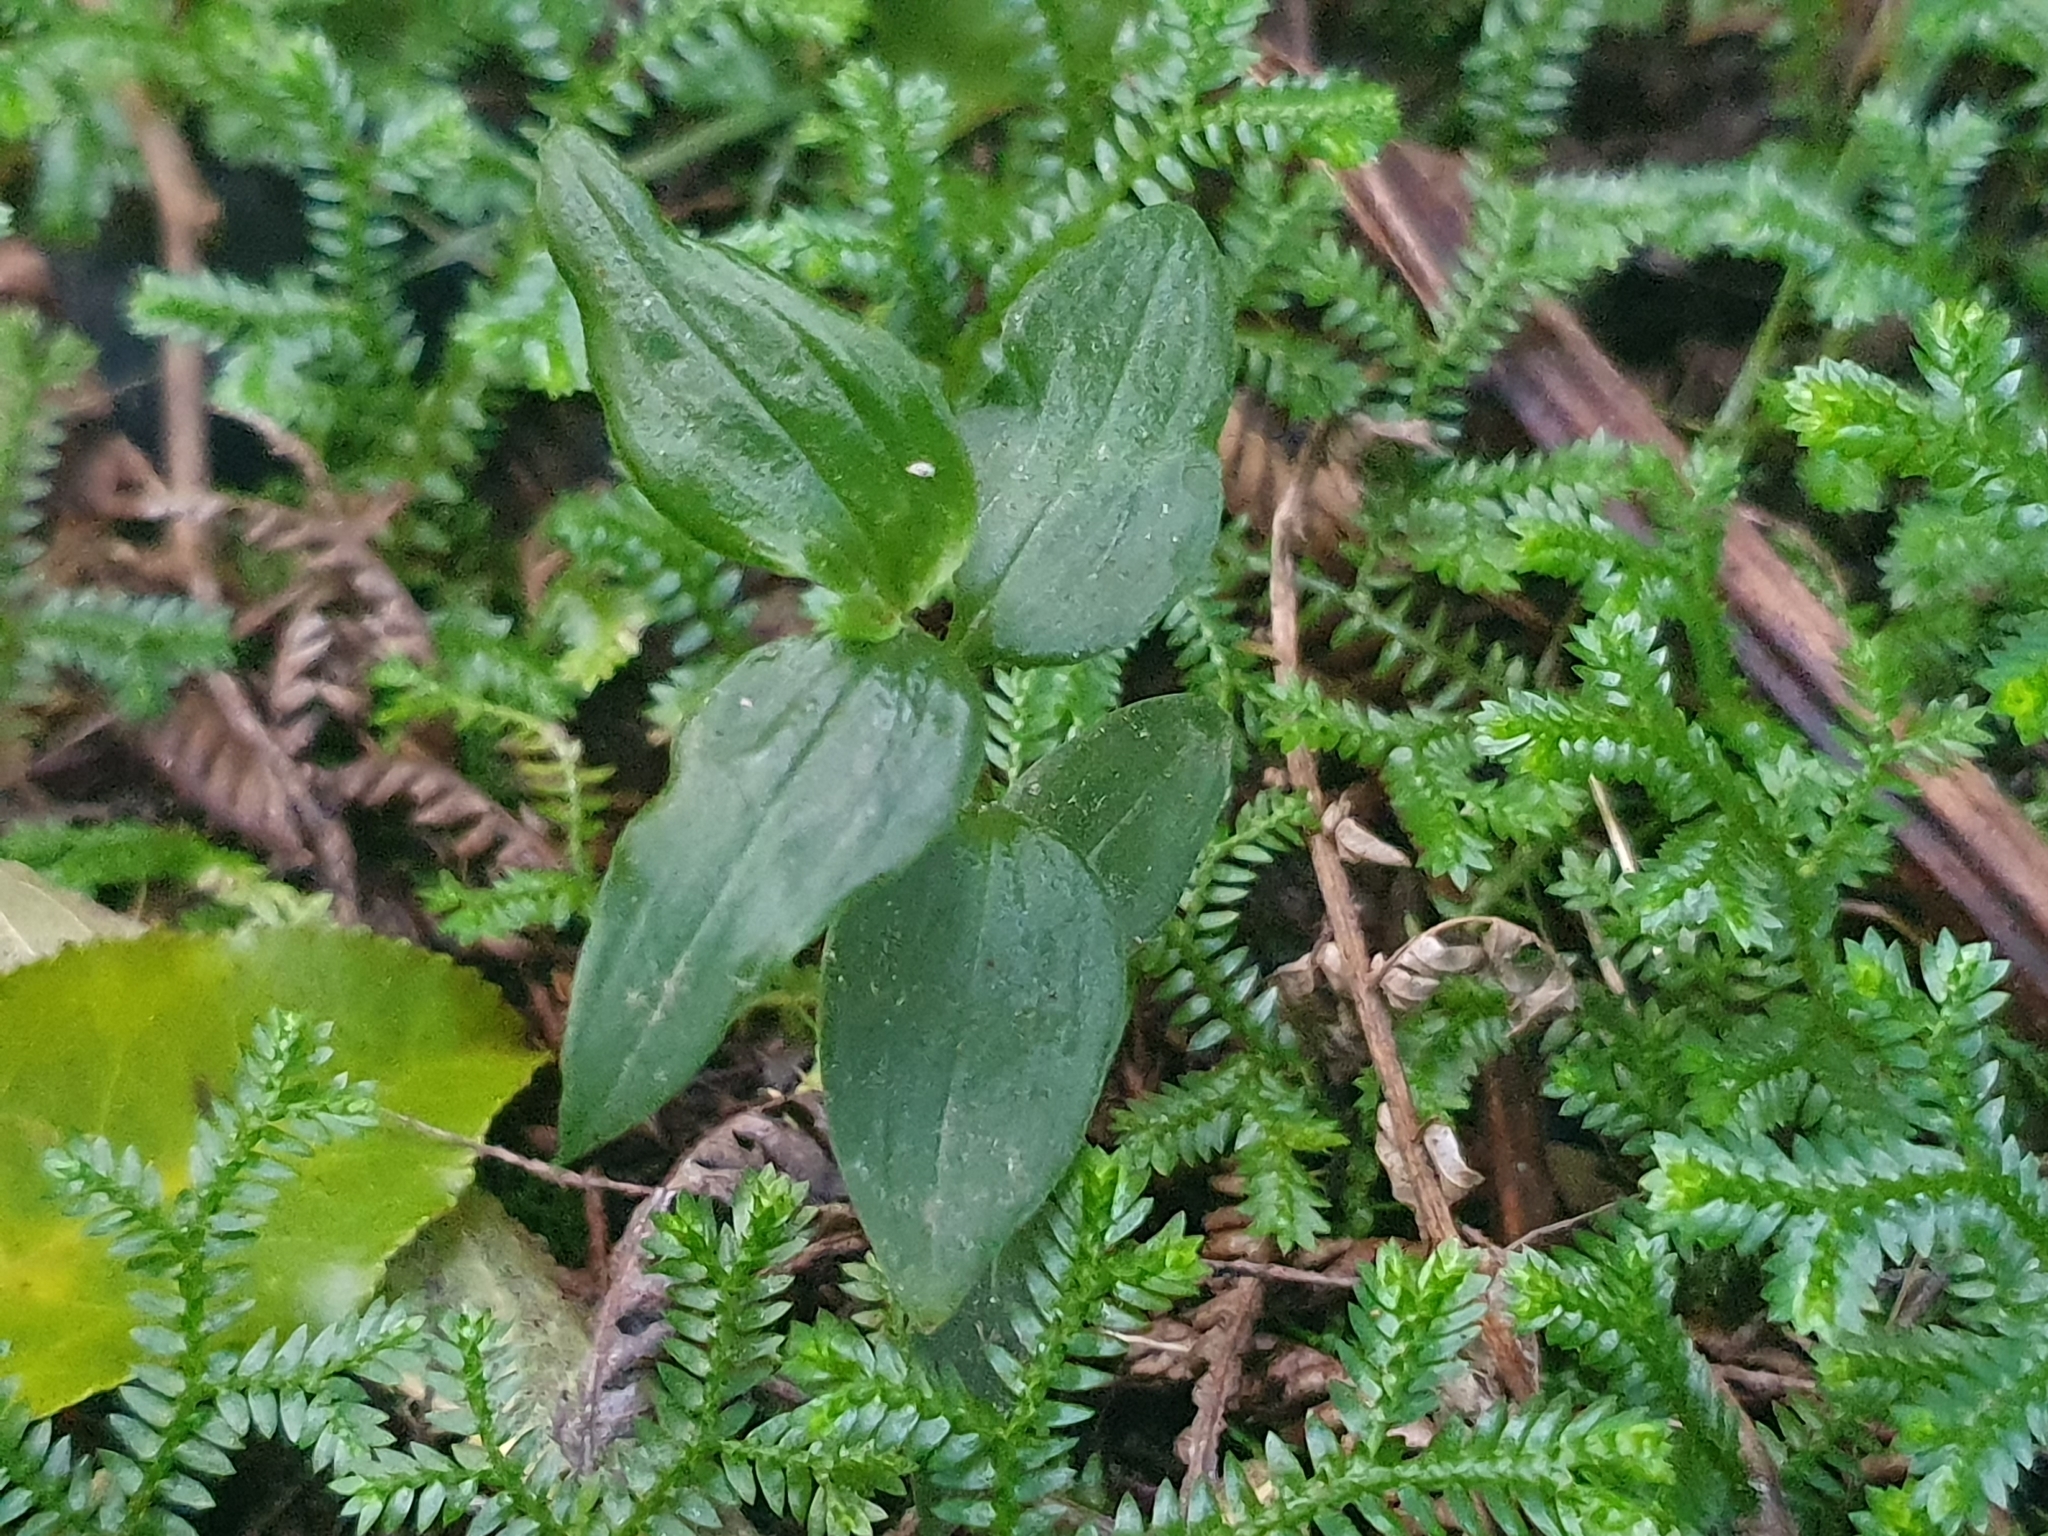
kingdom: Plantae
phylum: Tracheophyta
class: Liliopsida
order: Commelinales
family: Commelinaceae
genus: Tradescantia
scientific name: Tradescantia fluminensis
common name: Wandering-jew
